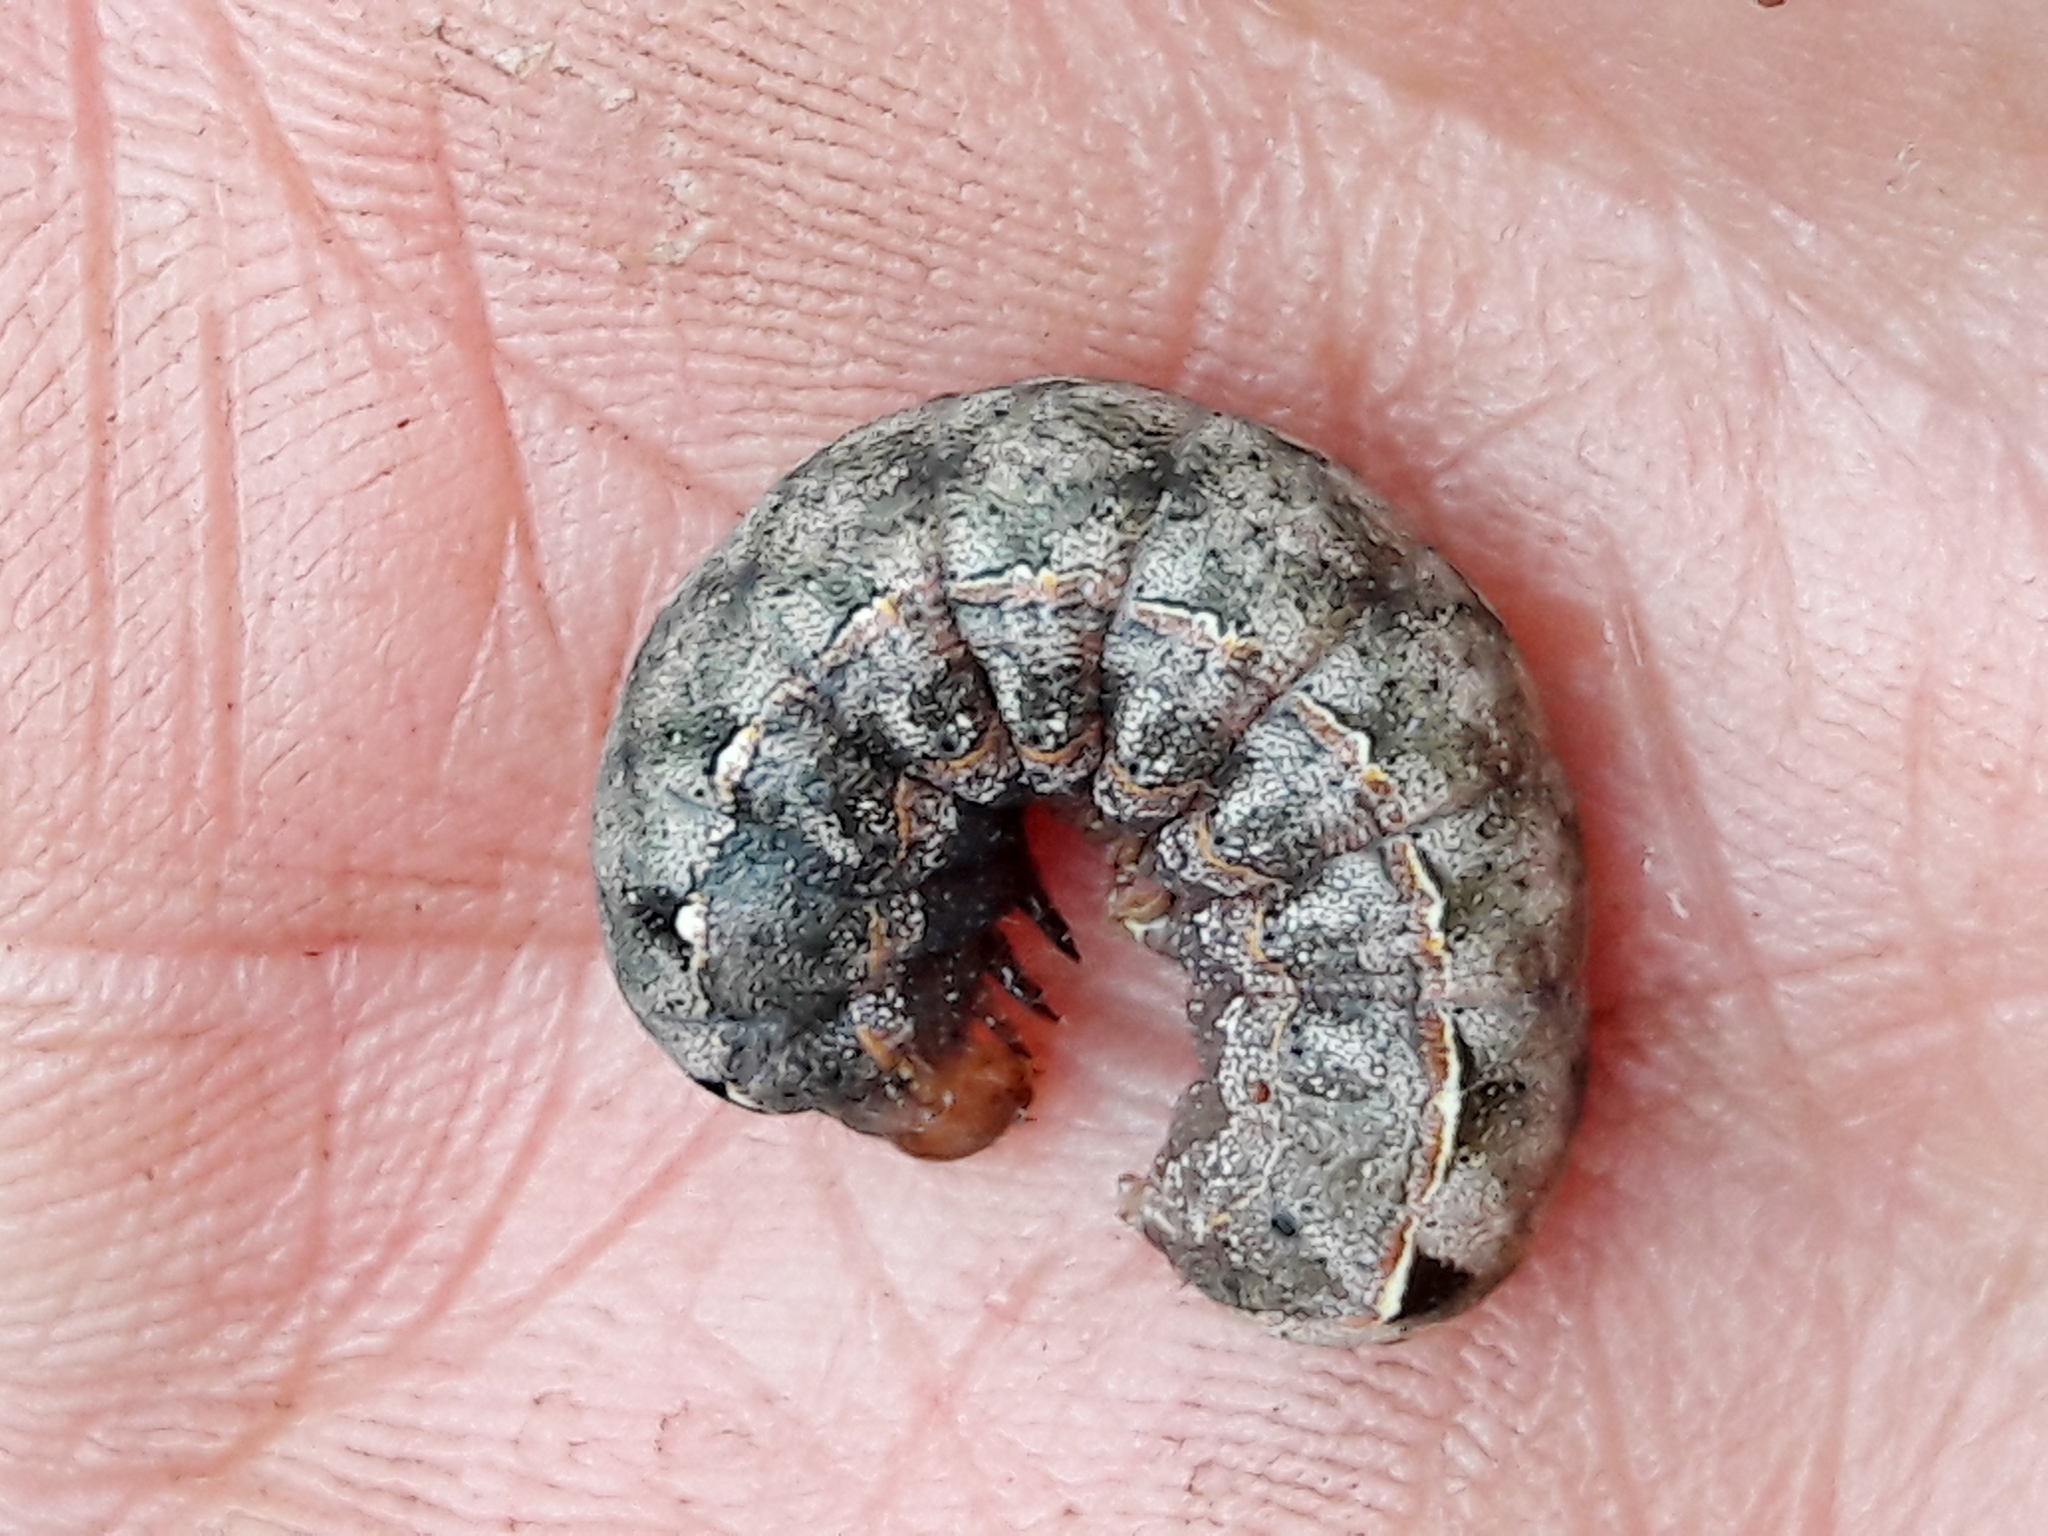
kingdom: Animalia
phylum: Arthropoda
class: Insecta
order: Lepidoptera
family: Noctuidae
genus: Spodoptera
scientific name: Spodoptera cosmioides
